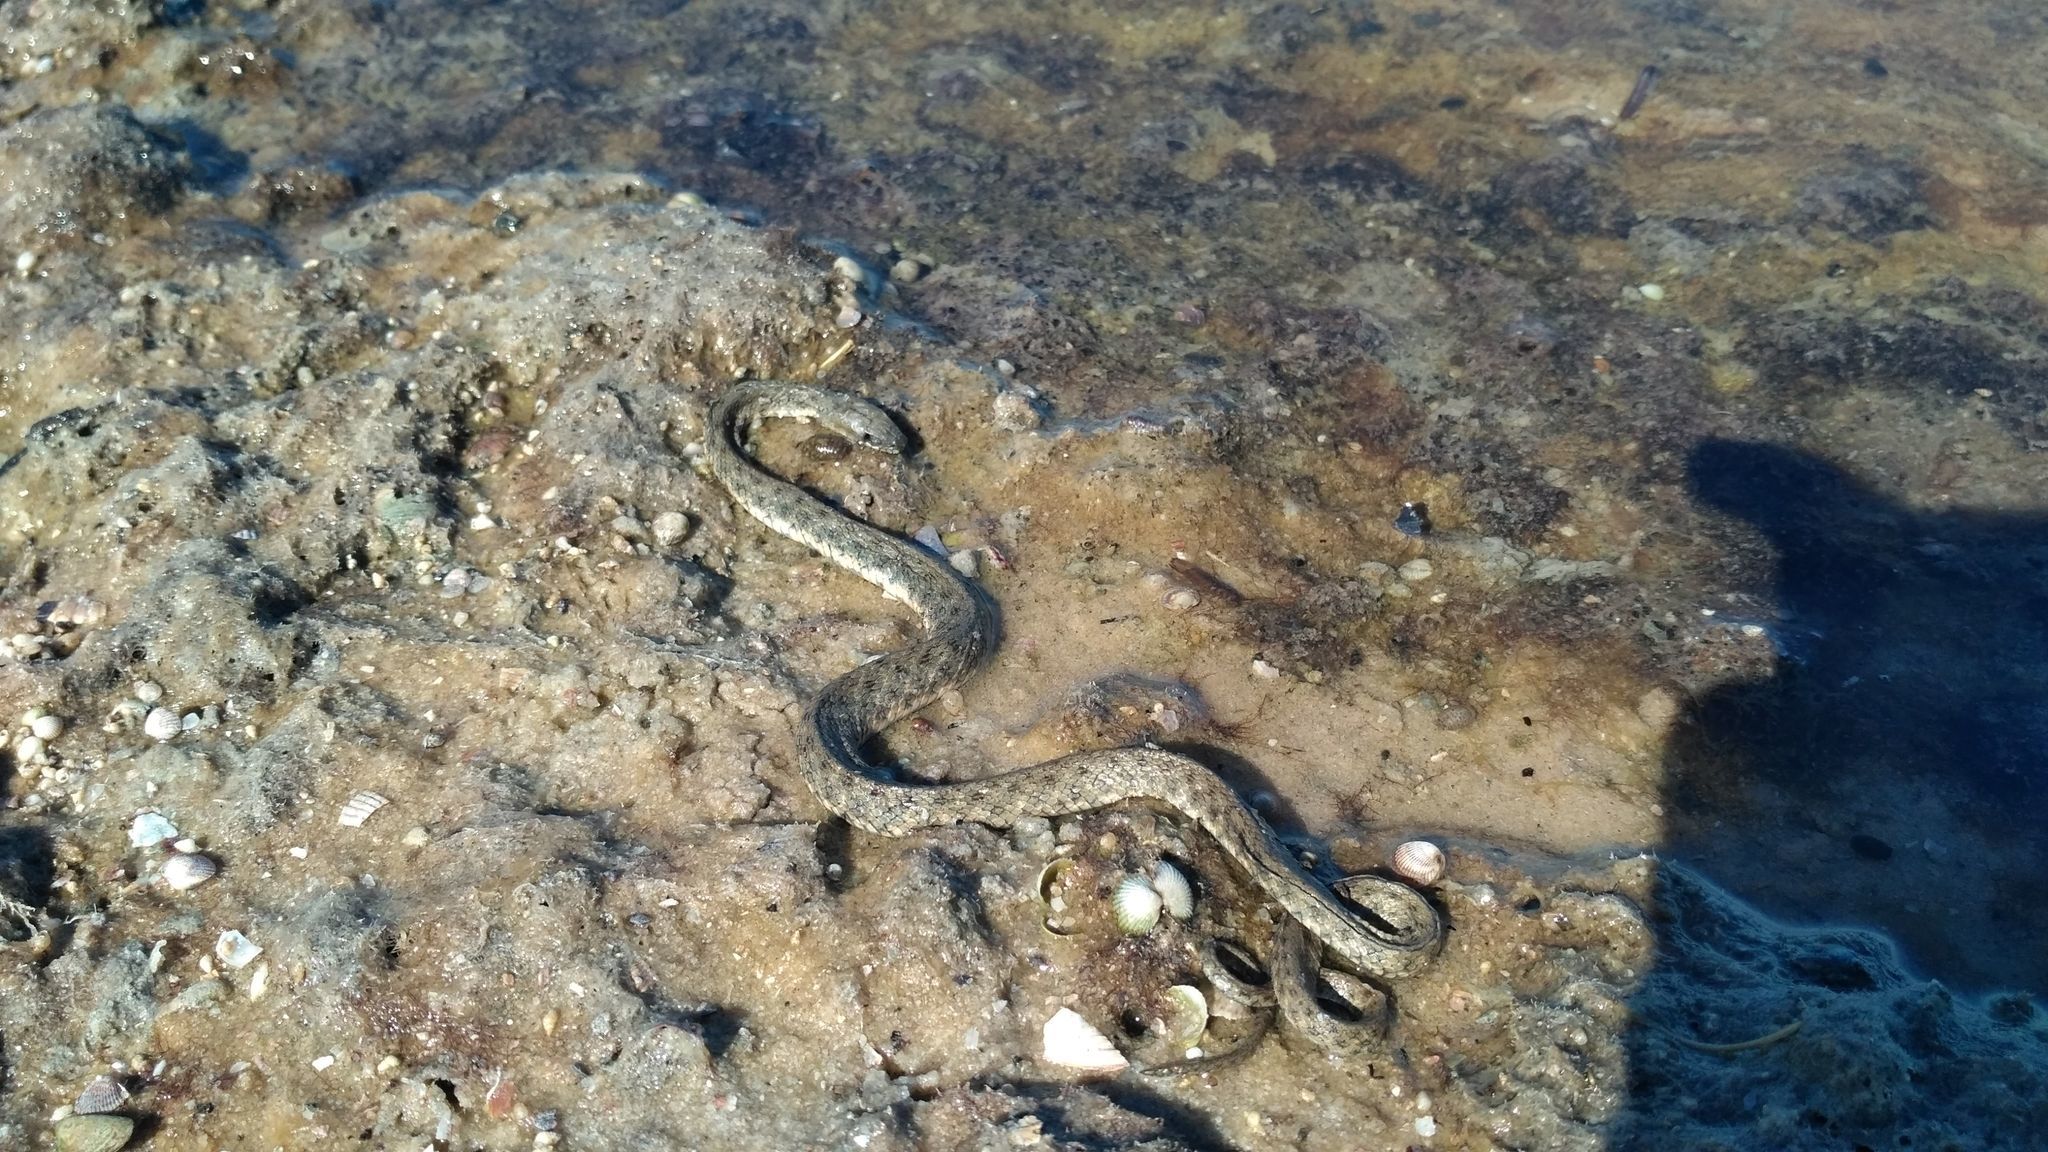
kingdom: Animalia
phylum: Chordata
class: Squamata
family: Colubridae
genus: Natrix
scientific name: Natrix tessellata
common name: Dice snake
